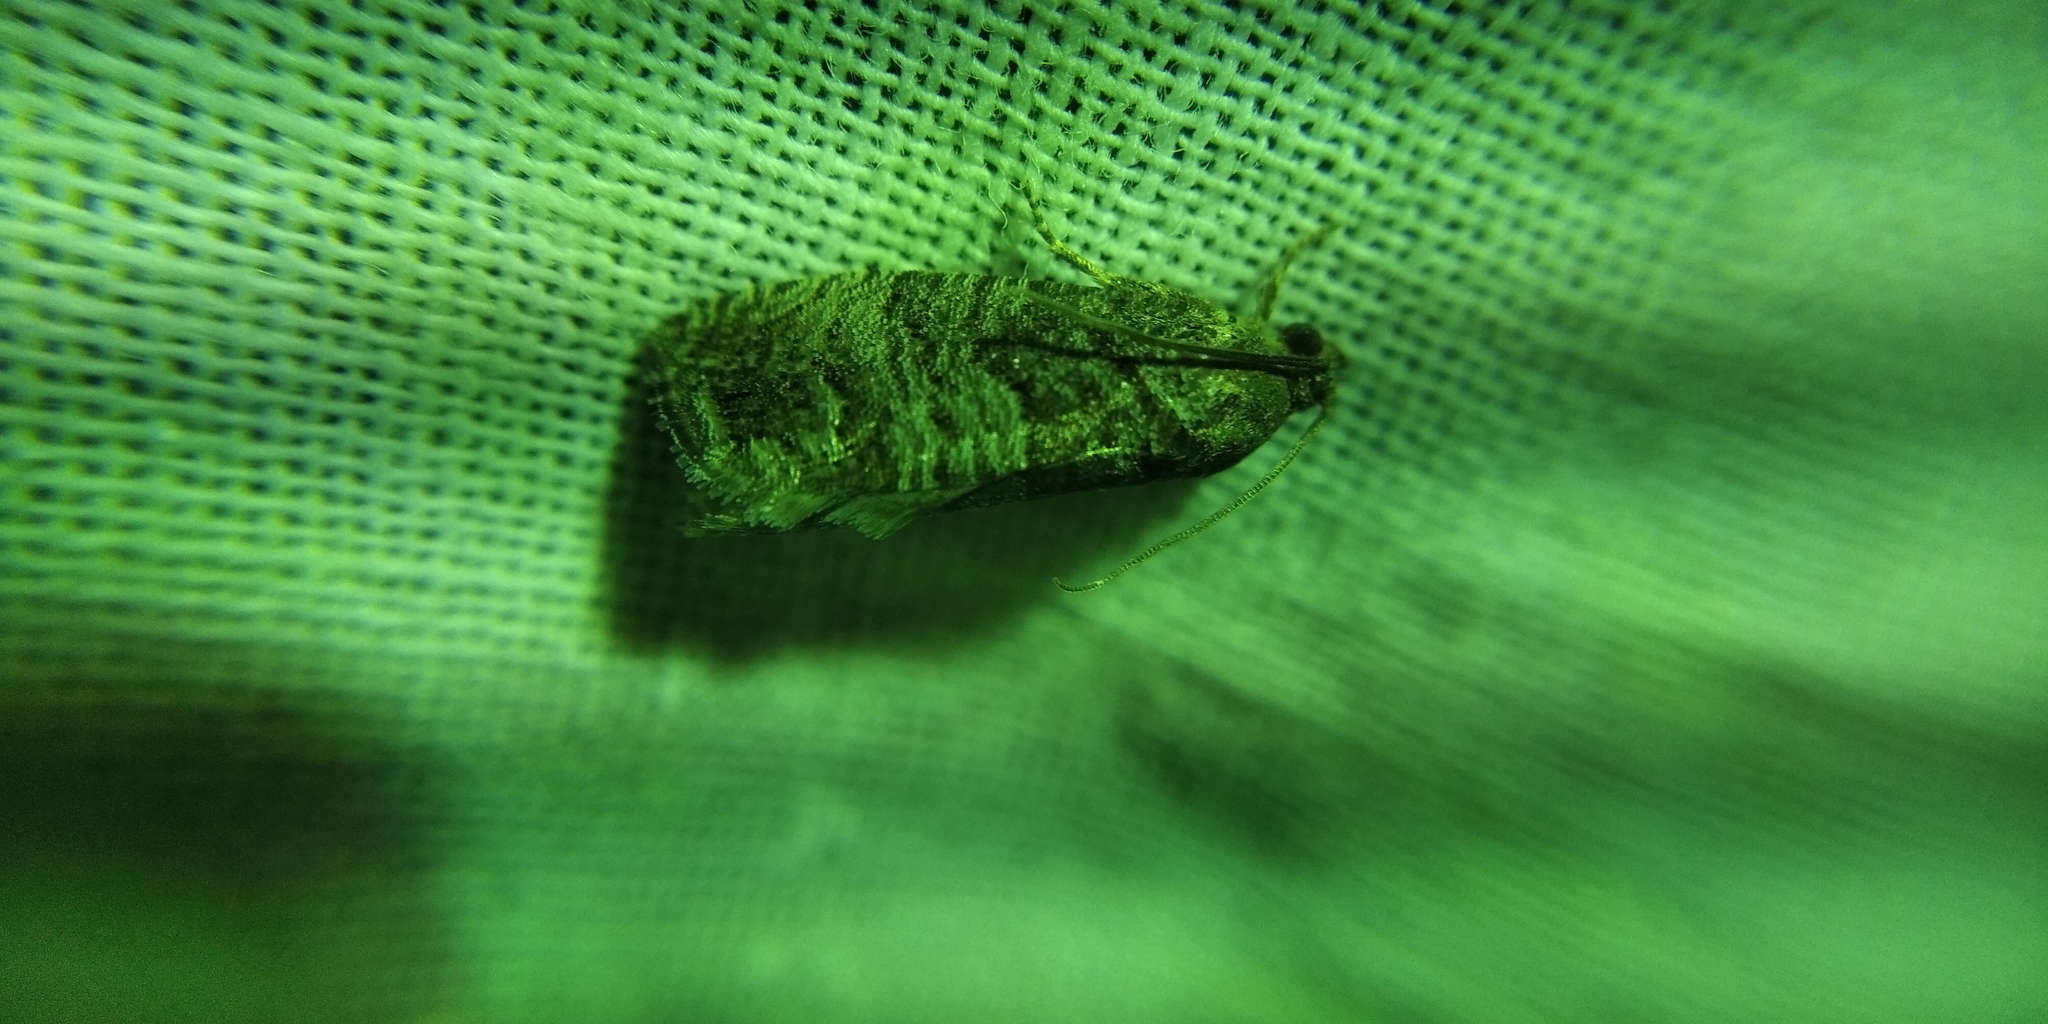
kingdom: Animalia
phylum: Arthropoda
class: Insecta
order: Lepidoptera
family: Tortricidae
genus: Cydia
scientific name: Cydia pomonella
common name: Codling moth
